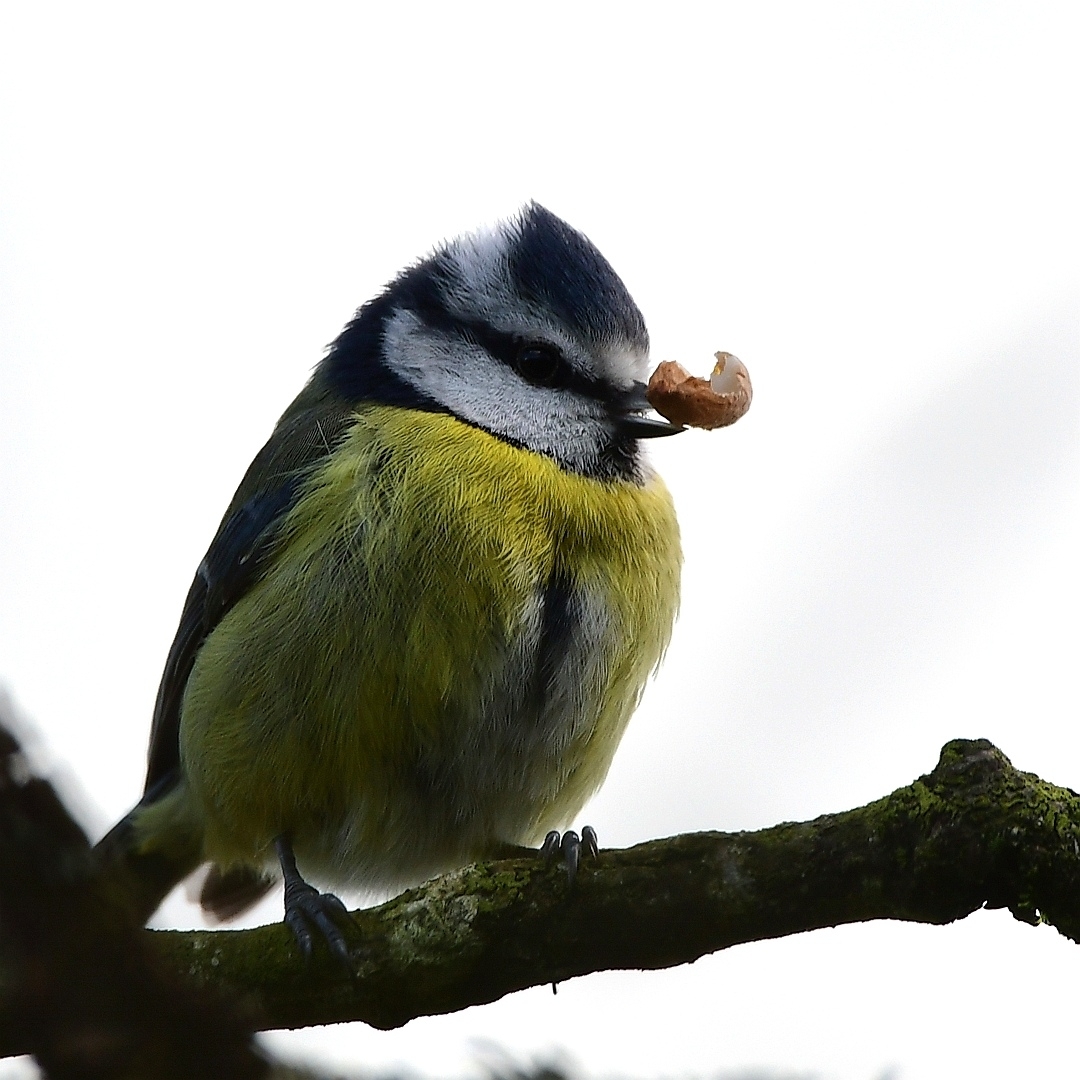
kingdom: Animalia
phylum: Chordata
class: Aves
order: Passeriformes
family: Paridae
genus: Cyanistes
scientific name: Cyanistes caeruleus
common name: Eurasian blue tit
